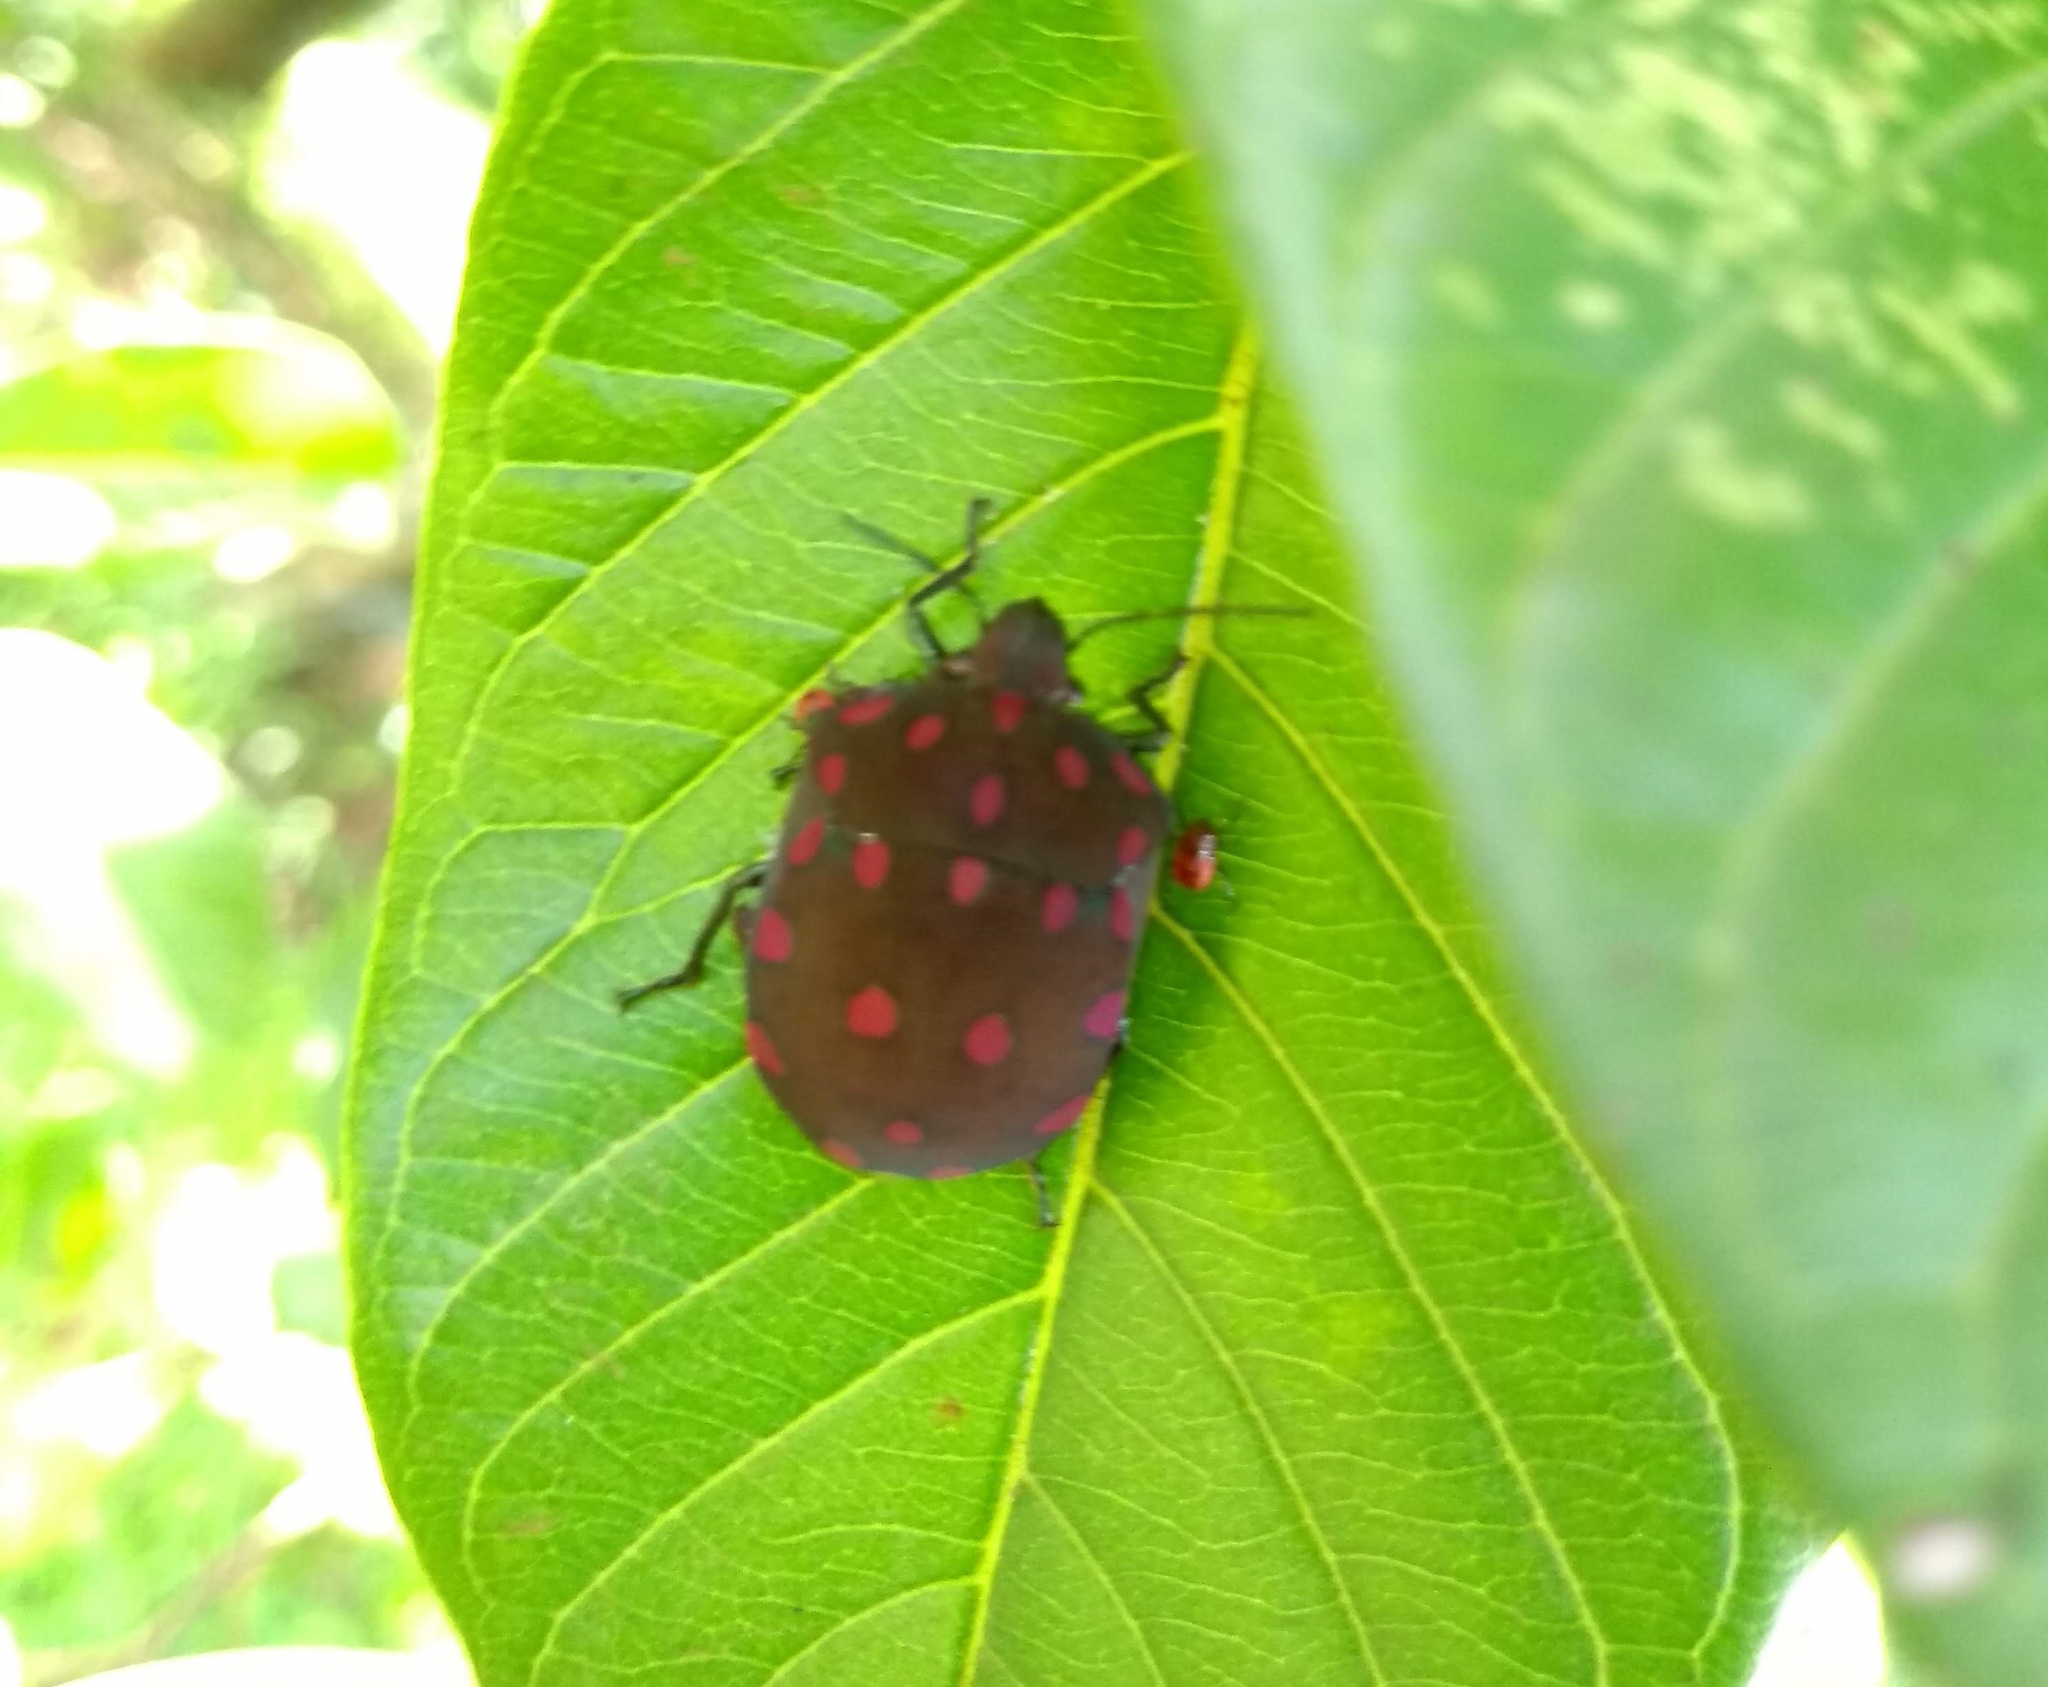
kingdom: Animalia
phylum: Arthropoda
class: Insecta
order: Hemiptera
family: Scutelleridae
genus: Pachycoris
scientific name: Pachycoris torridus
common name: Torrid jewel bug
